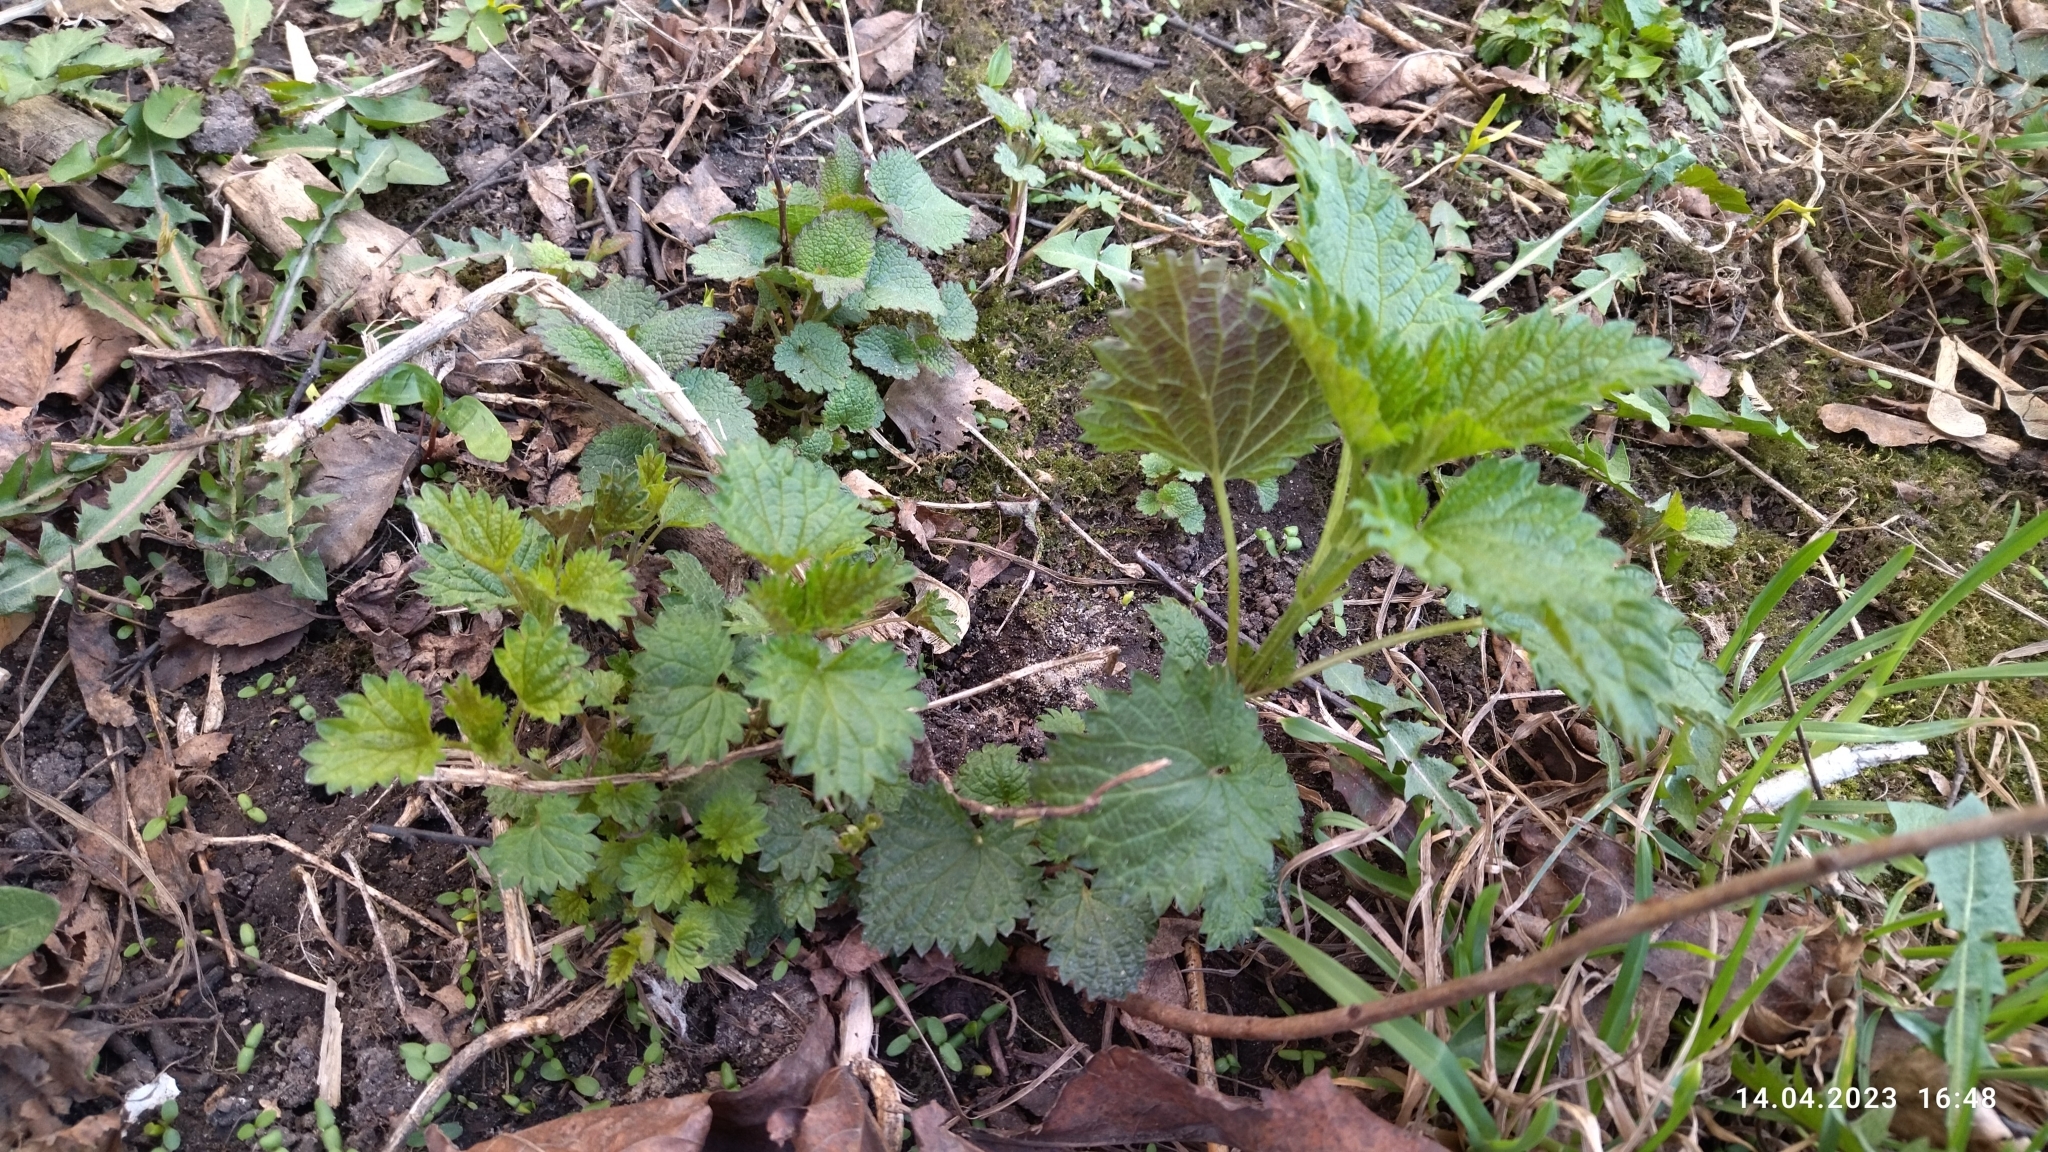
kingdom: Plantae
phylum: Tracheophyta
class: Magnoliopsida
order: Rosales
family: Urticaceae
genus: Urtica
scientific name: Urtica dioica
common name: Common nettle
